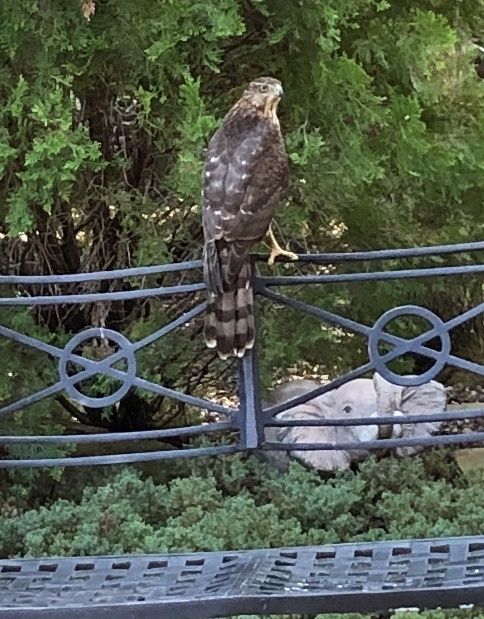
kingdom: Animalia
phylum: Chordata
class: Aves
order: Accipitriformes
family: Accipitridae
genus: Accipiter
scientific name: Accipiter cooperii
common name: Cooper's hawk
